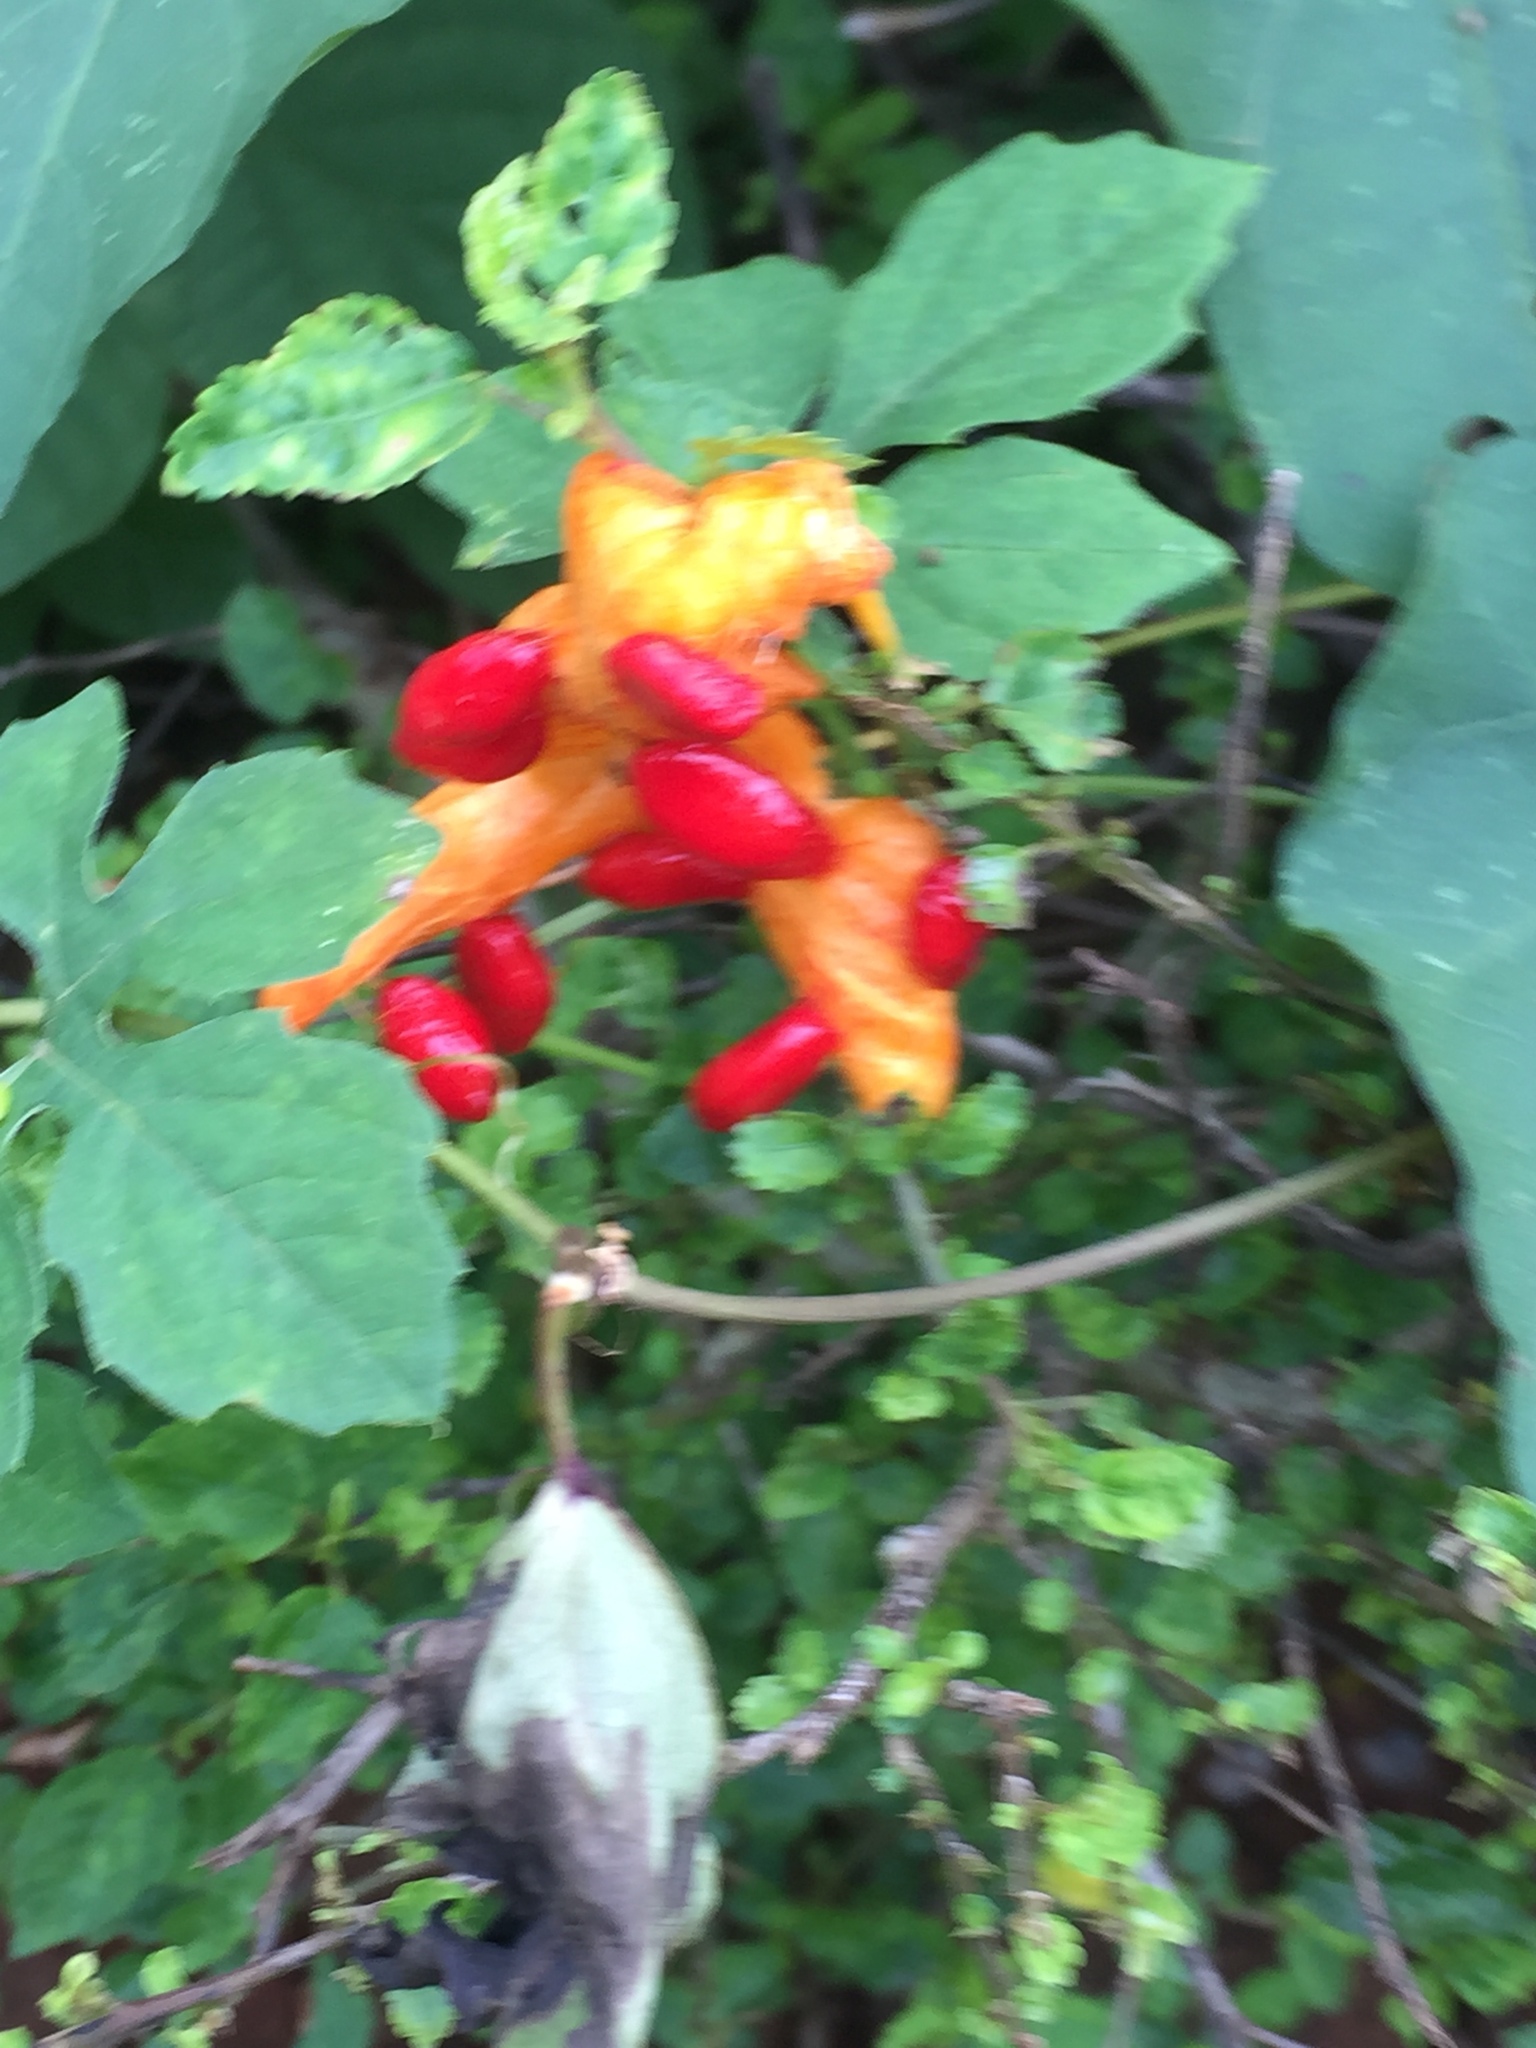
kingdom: Plantae
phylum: Tracheophyta
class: Magnoliopsida
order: Cucurbitales
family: Cucurbitaceae
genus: Momordica
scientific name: Momordica charantia
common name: Balsampear
